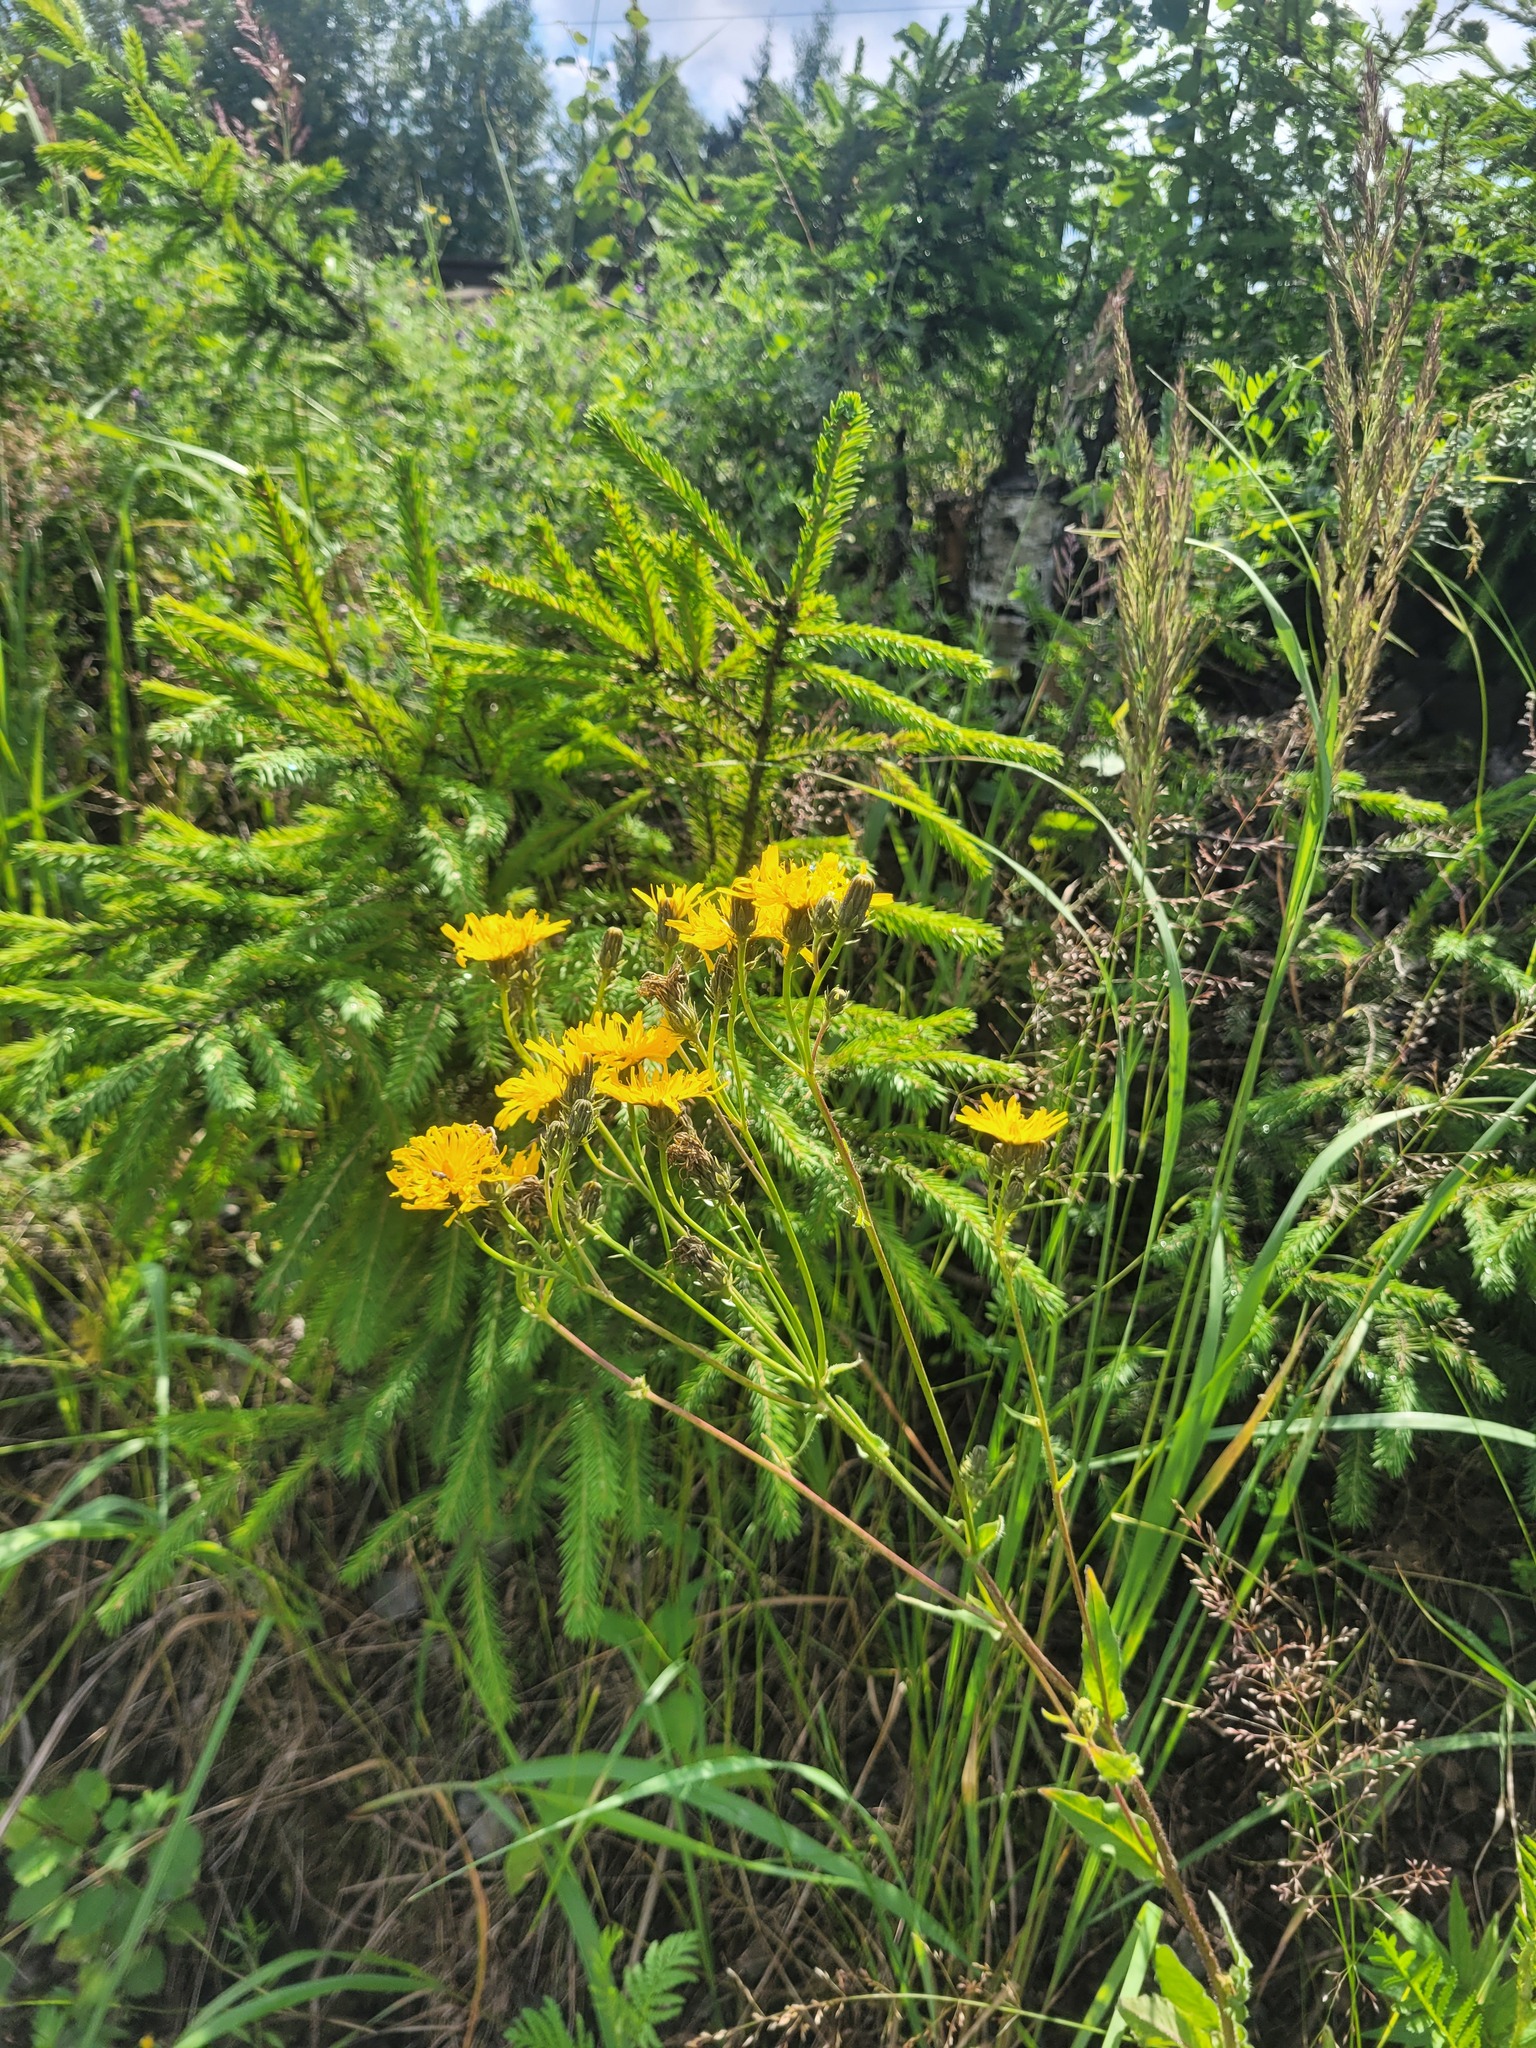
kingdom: Plantae
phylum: Tracheophyta
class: Magnoliopsida
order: Asterales
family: Asteraceae
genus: Picris
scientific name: Picris hieracioides
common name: Hawkweed oxtongue
